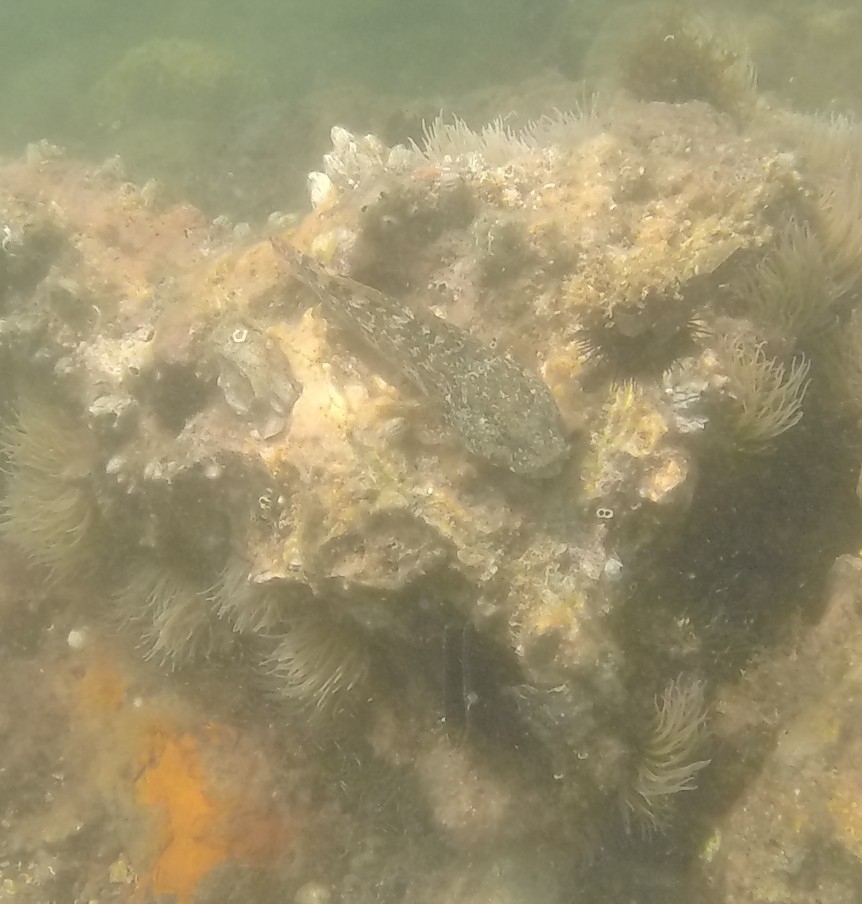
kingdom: Animalia
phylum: Chordata
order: Perciformes
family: Gobiidae
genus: Gobius
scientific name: Gobius cobitis
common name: Giant goby
